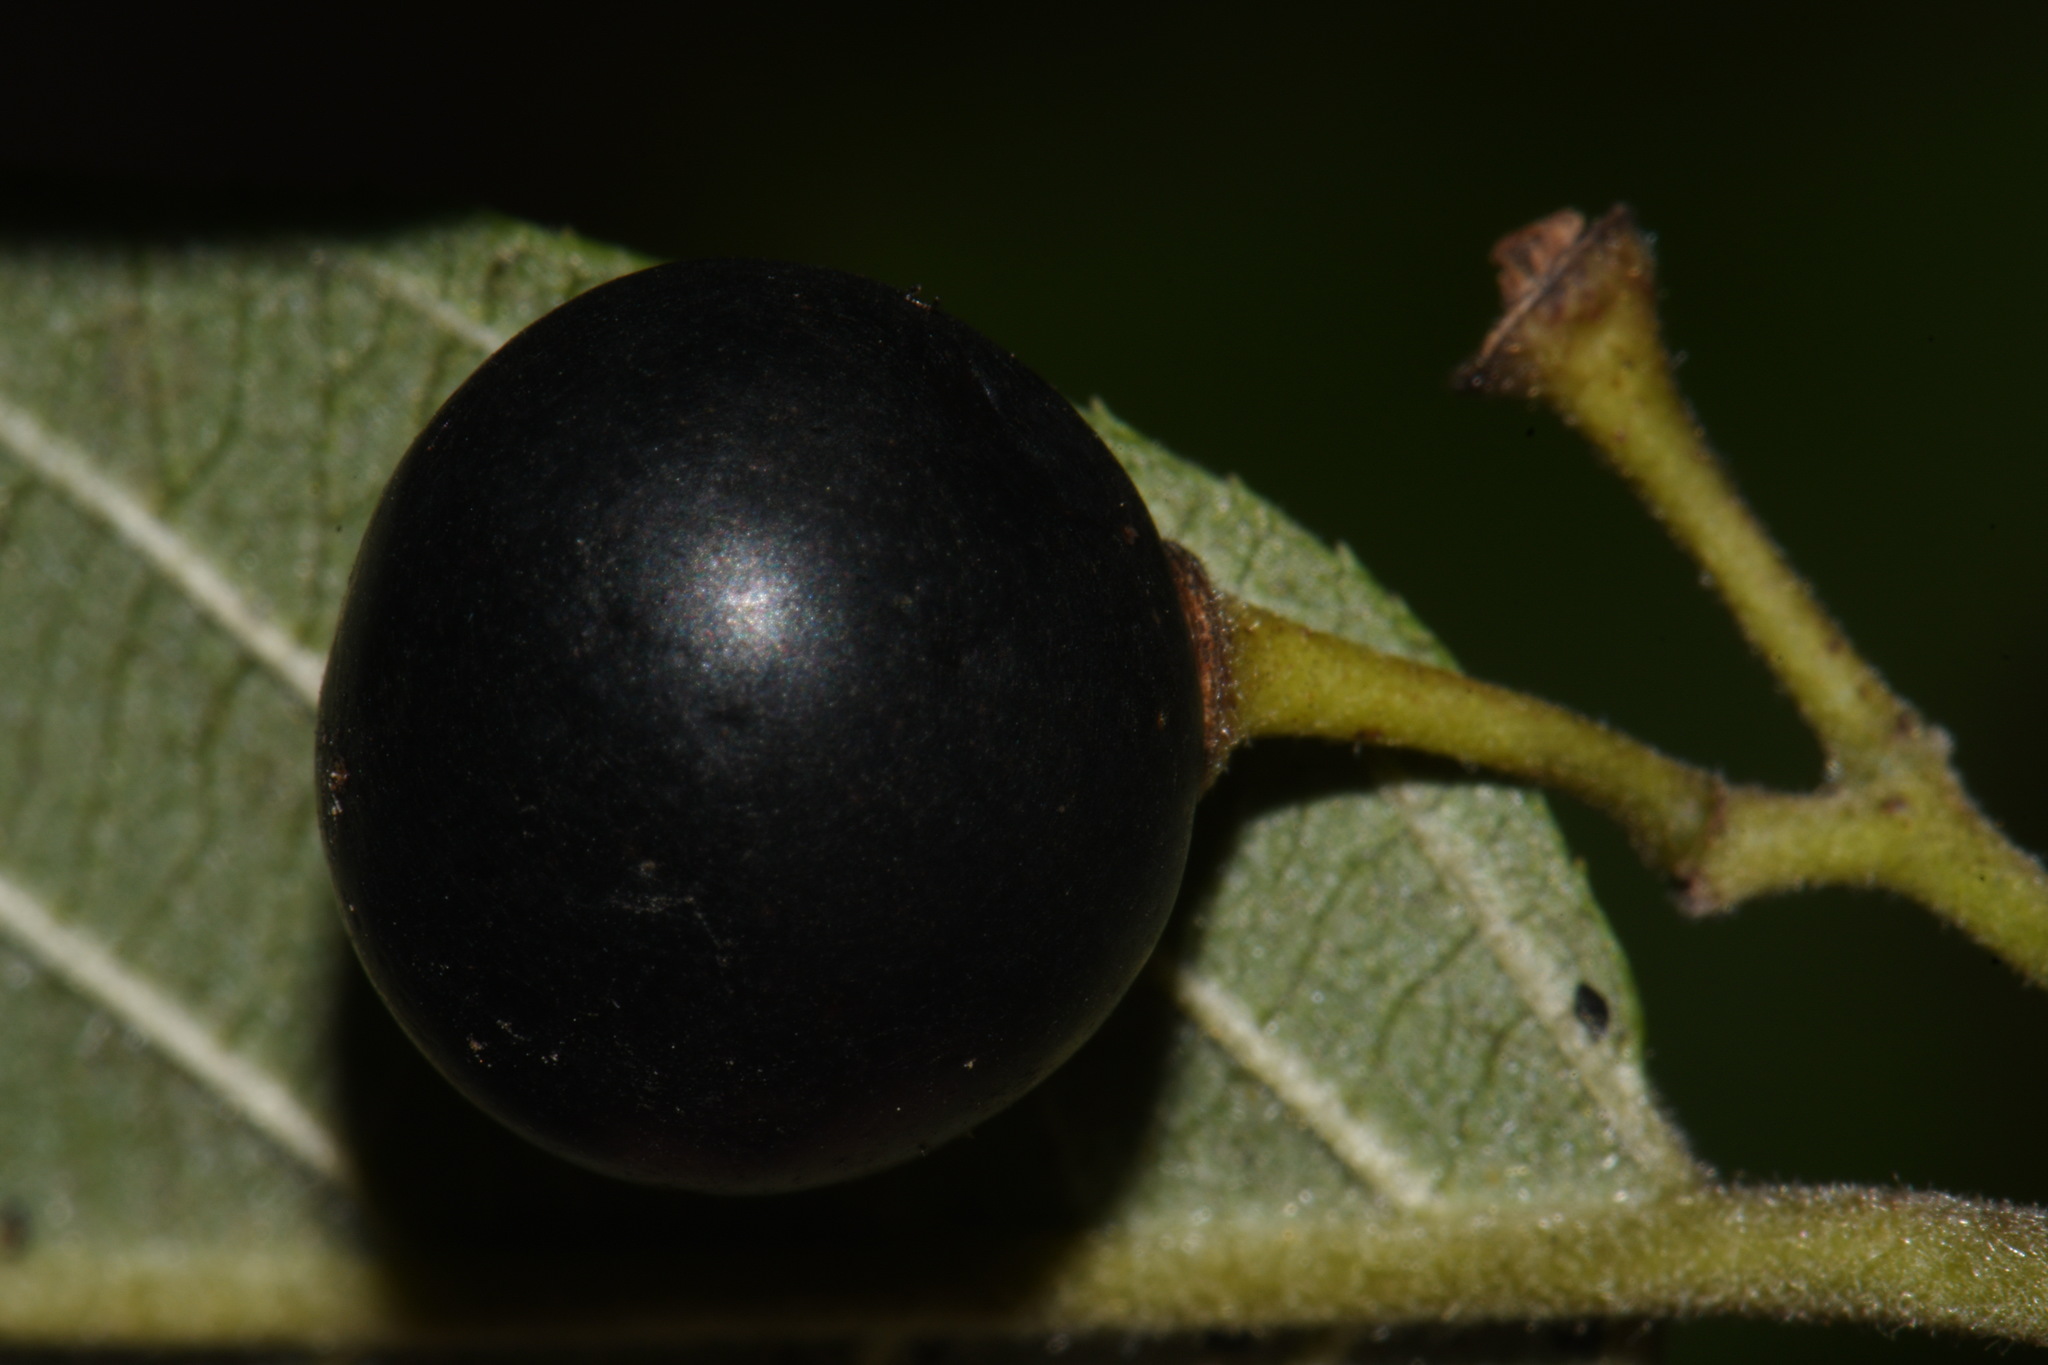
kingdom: Plantae
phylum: Tracheophyta
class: Magnoliopsida
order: Rosales
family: Rhamnaceae
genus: Frangula
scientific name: Frangula californica
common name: California buckthorn
